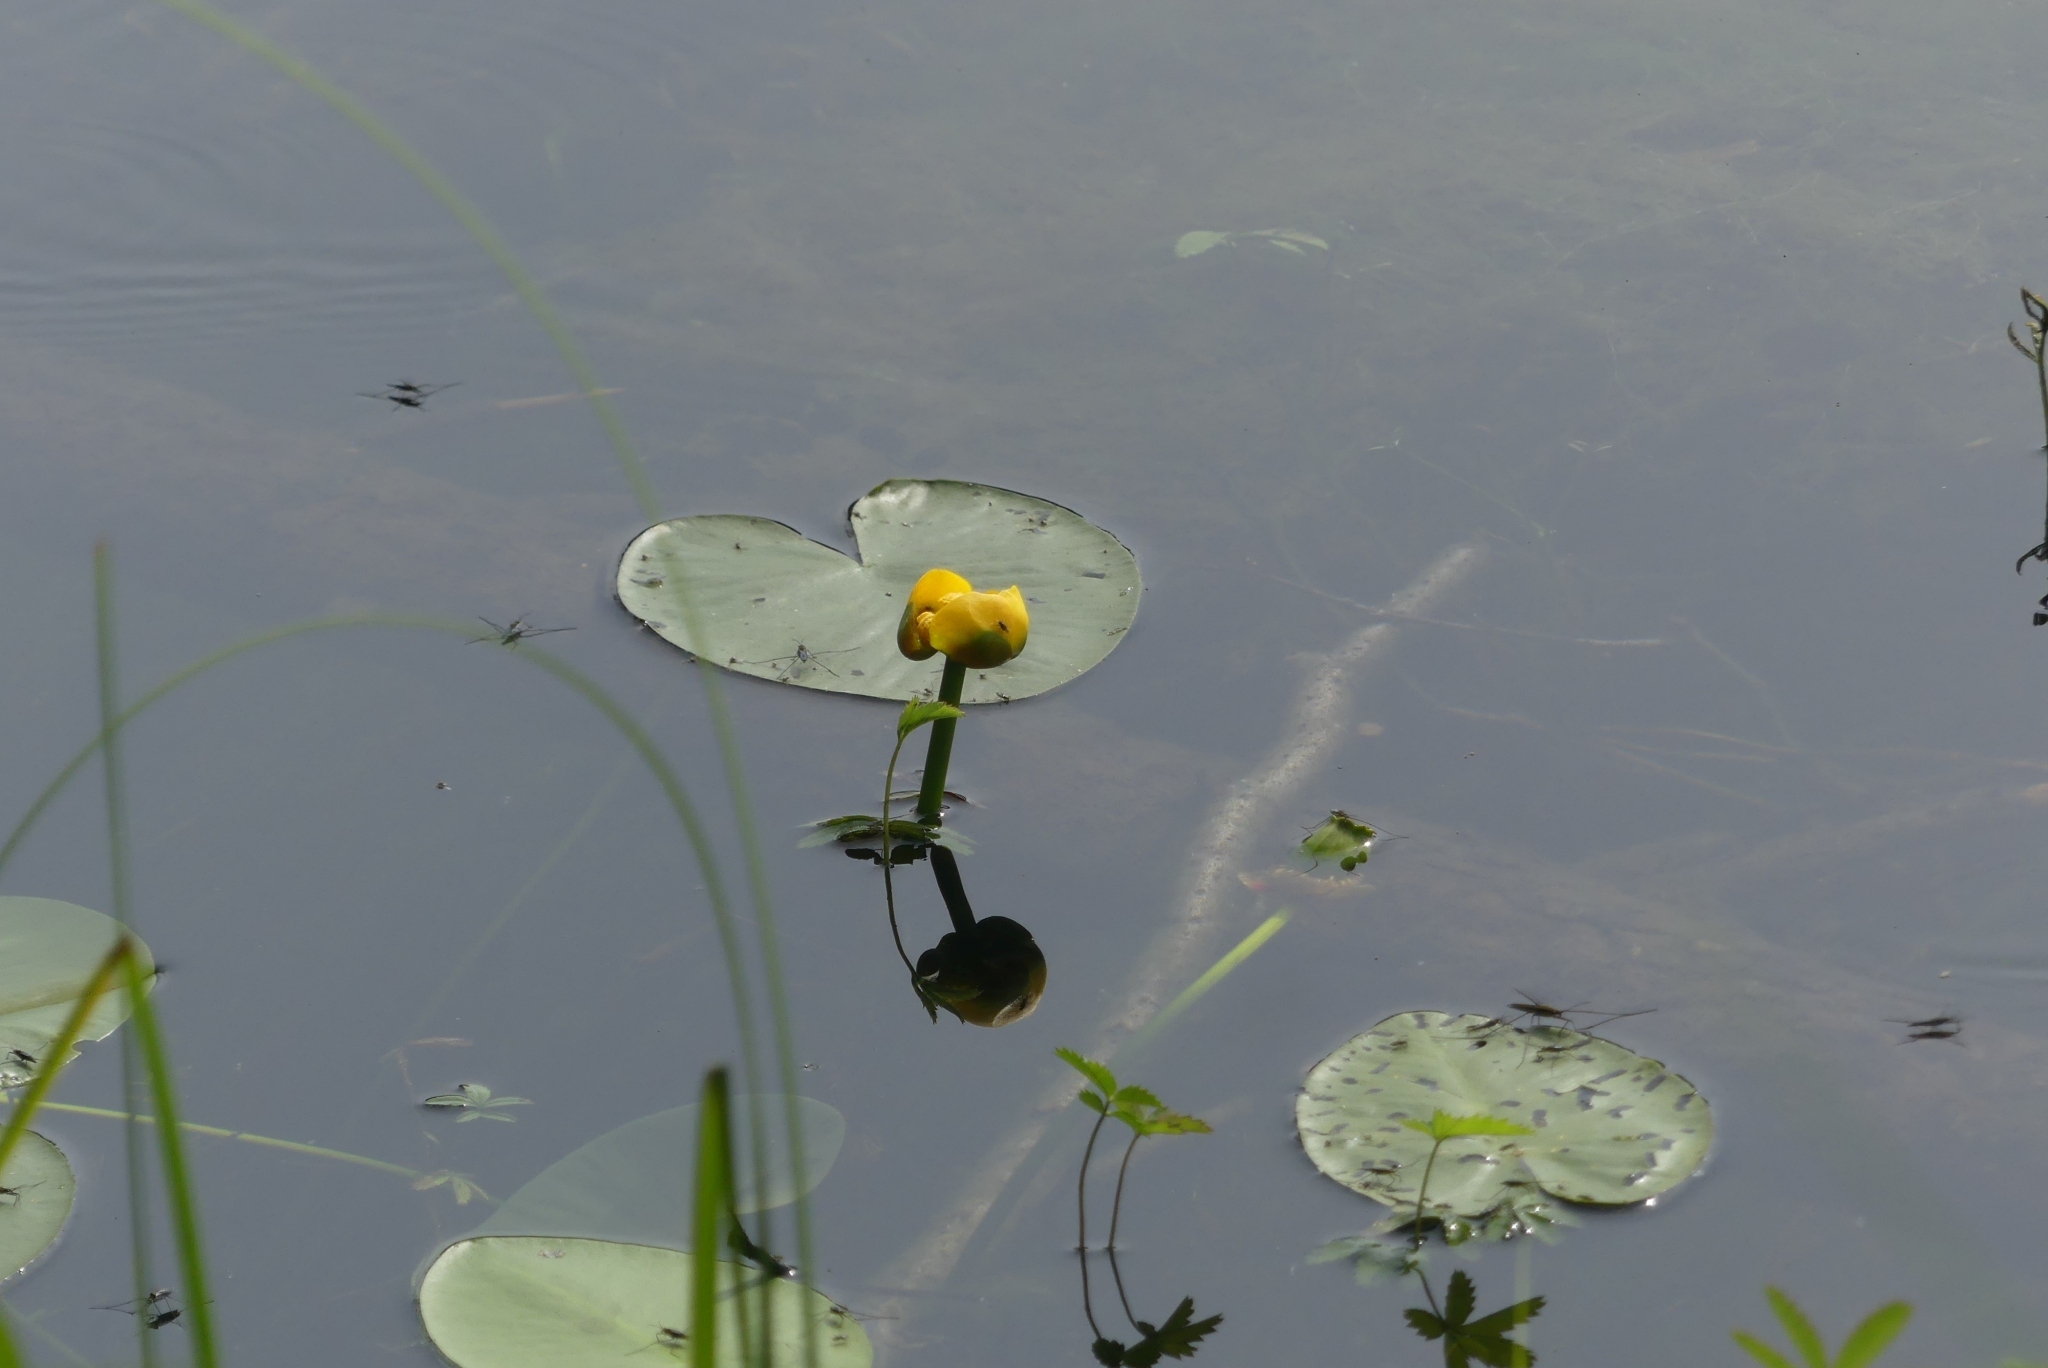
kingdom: Plantae
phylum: Tracheophyta
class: Magnoliopsida
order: Nymphaeales
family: Nymphaeaceae
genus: Nuphar
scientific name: Nuphar variegata
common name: Beaver-root
